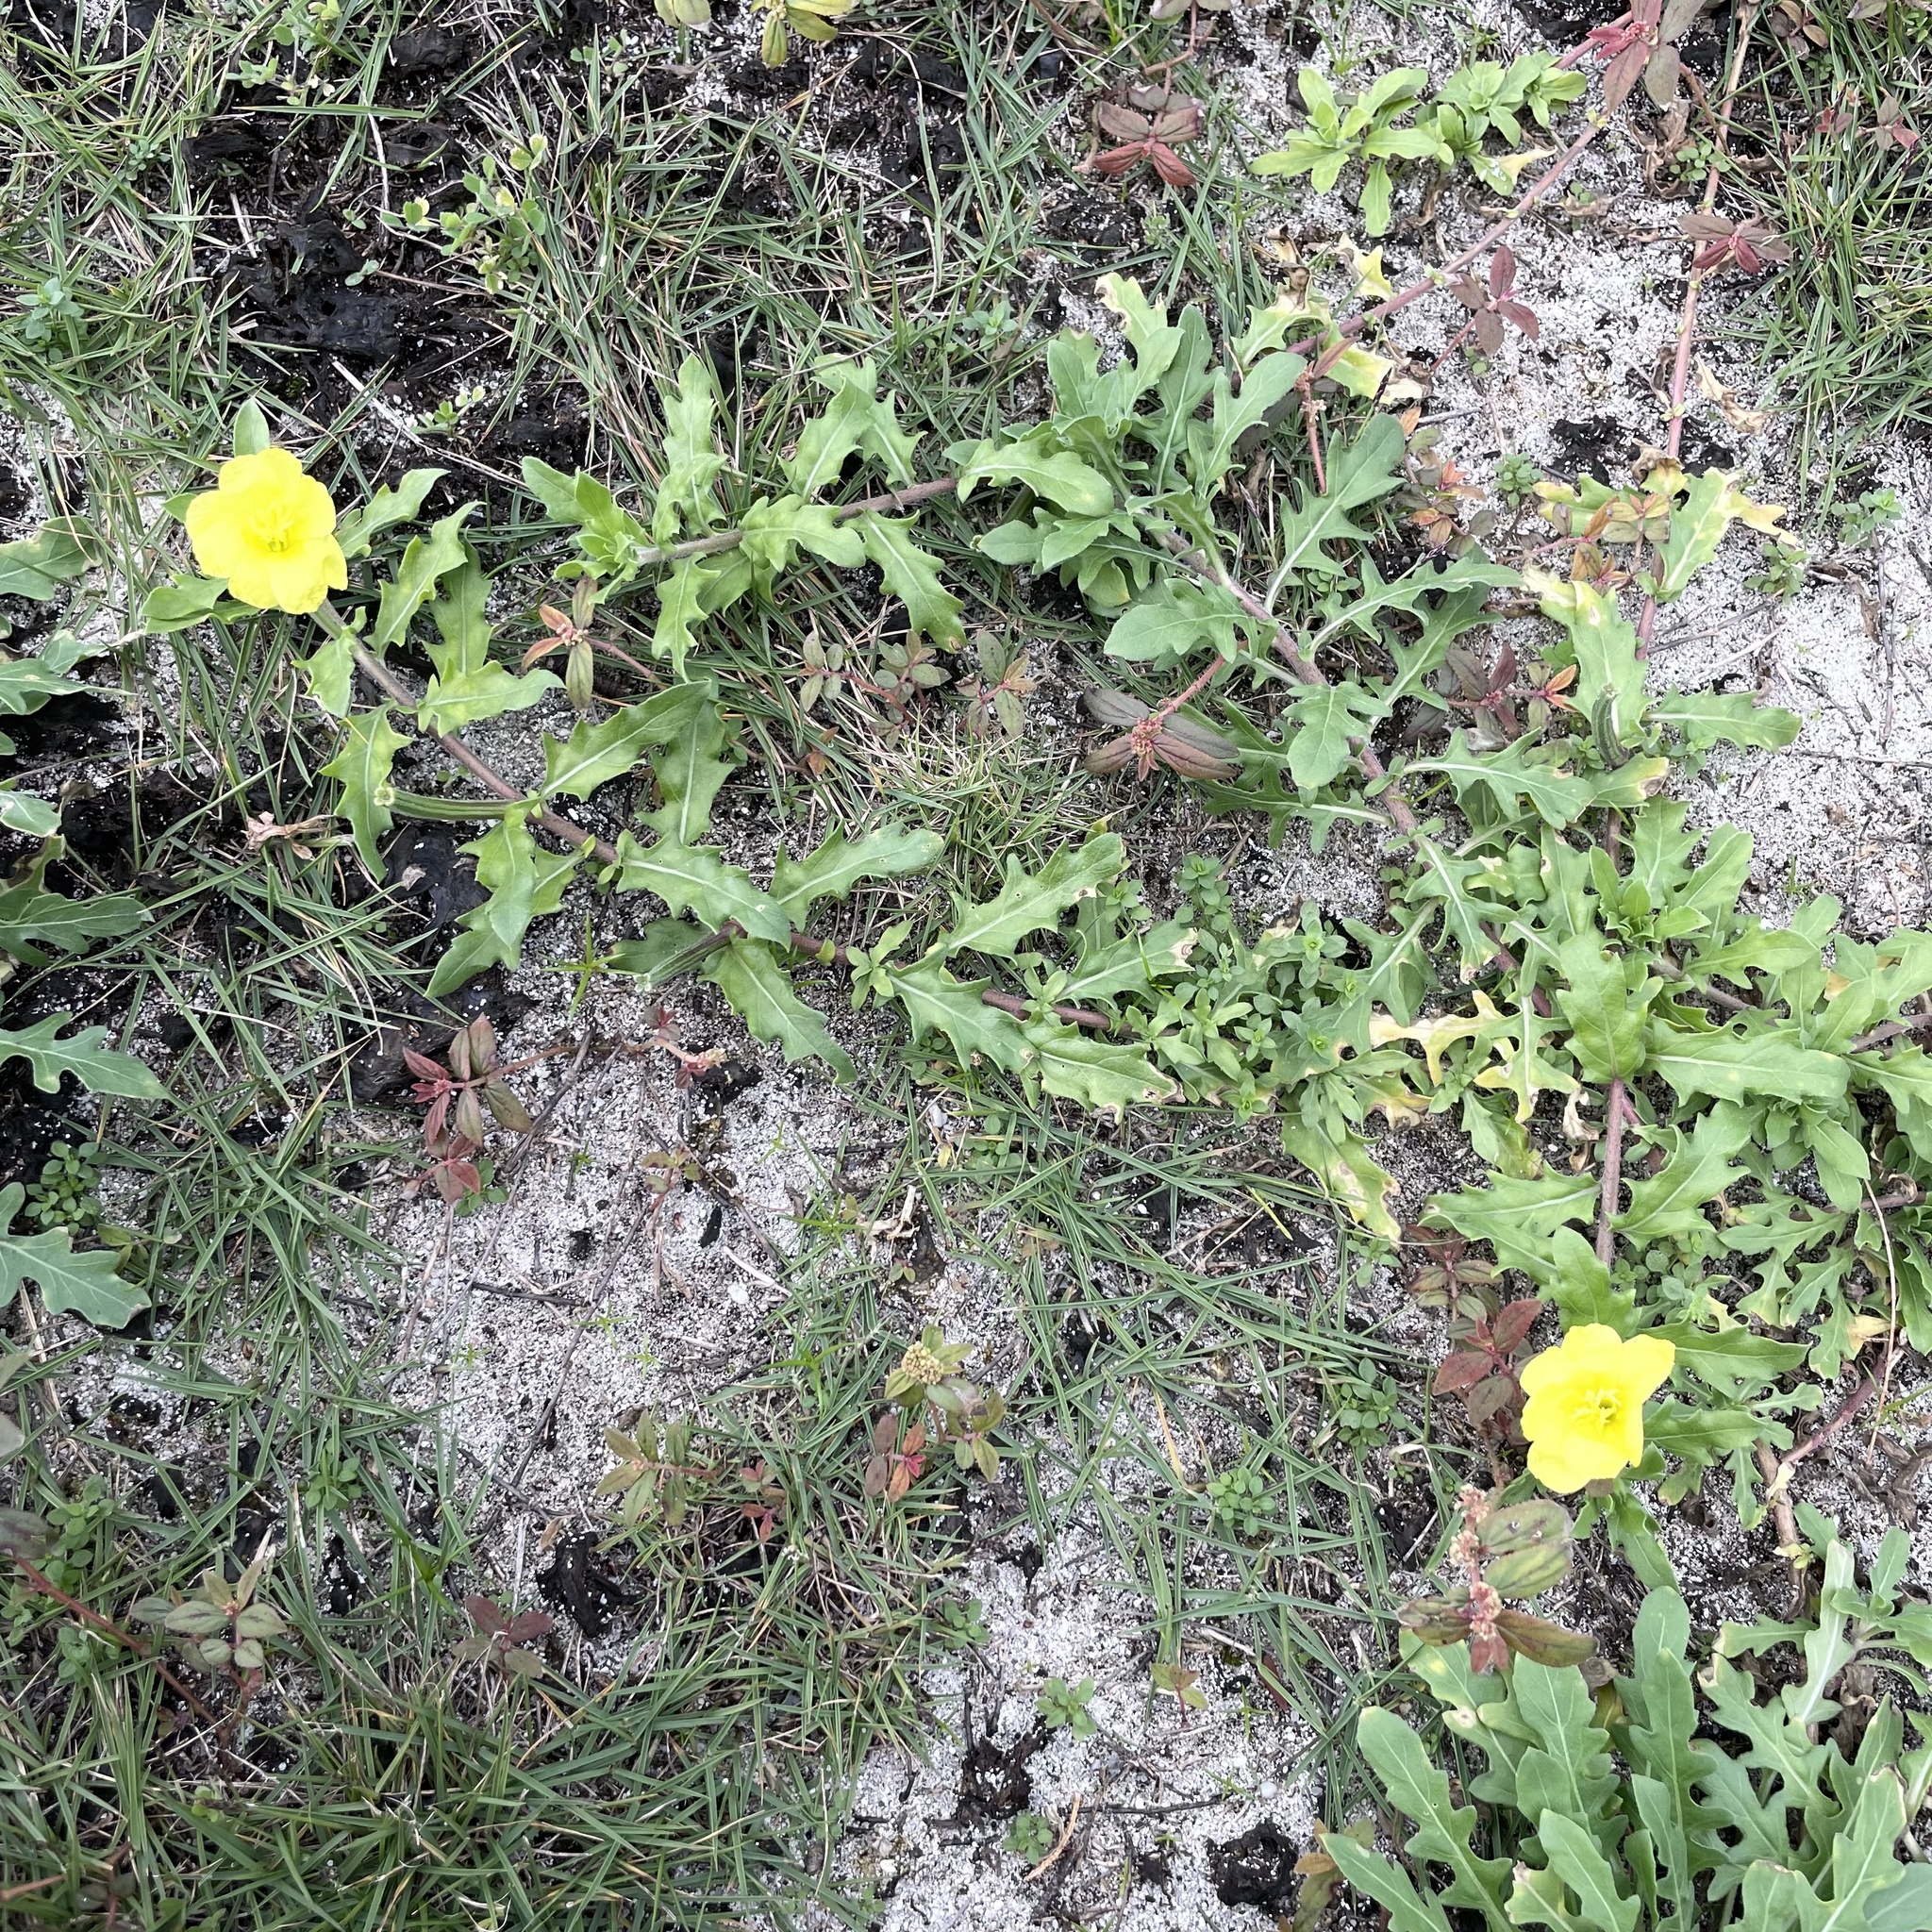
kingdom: Plantae
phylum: Tracheophyta
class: Magnoliopsida
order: Myrtales
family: Onagraceae
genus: Oenothera
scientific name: Oenothera laciniata
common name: Cut-leaved evening-primrose
